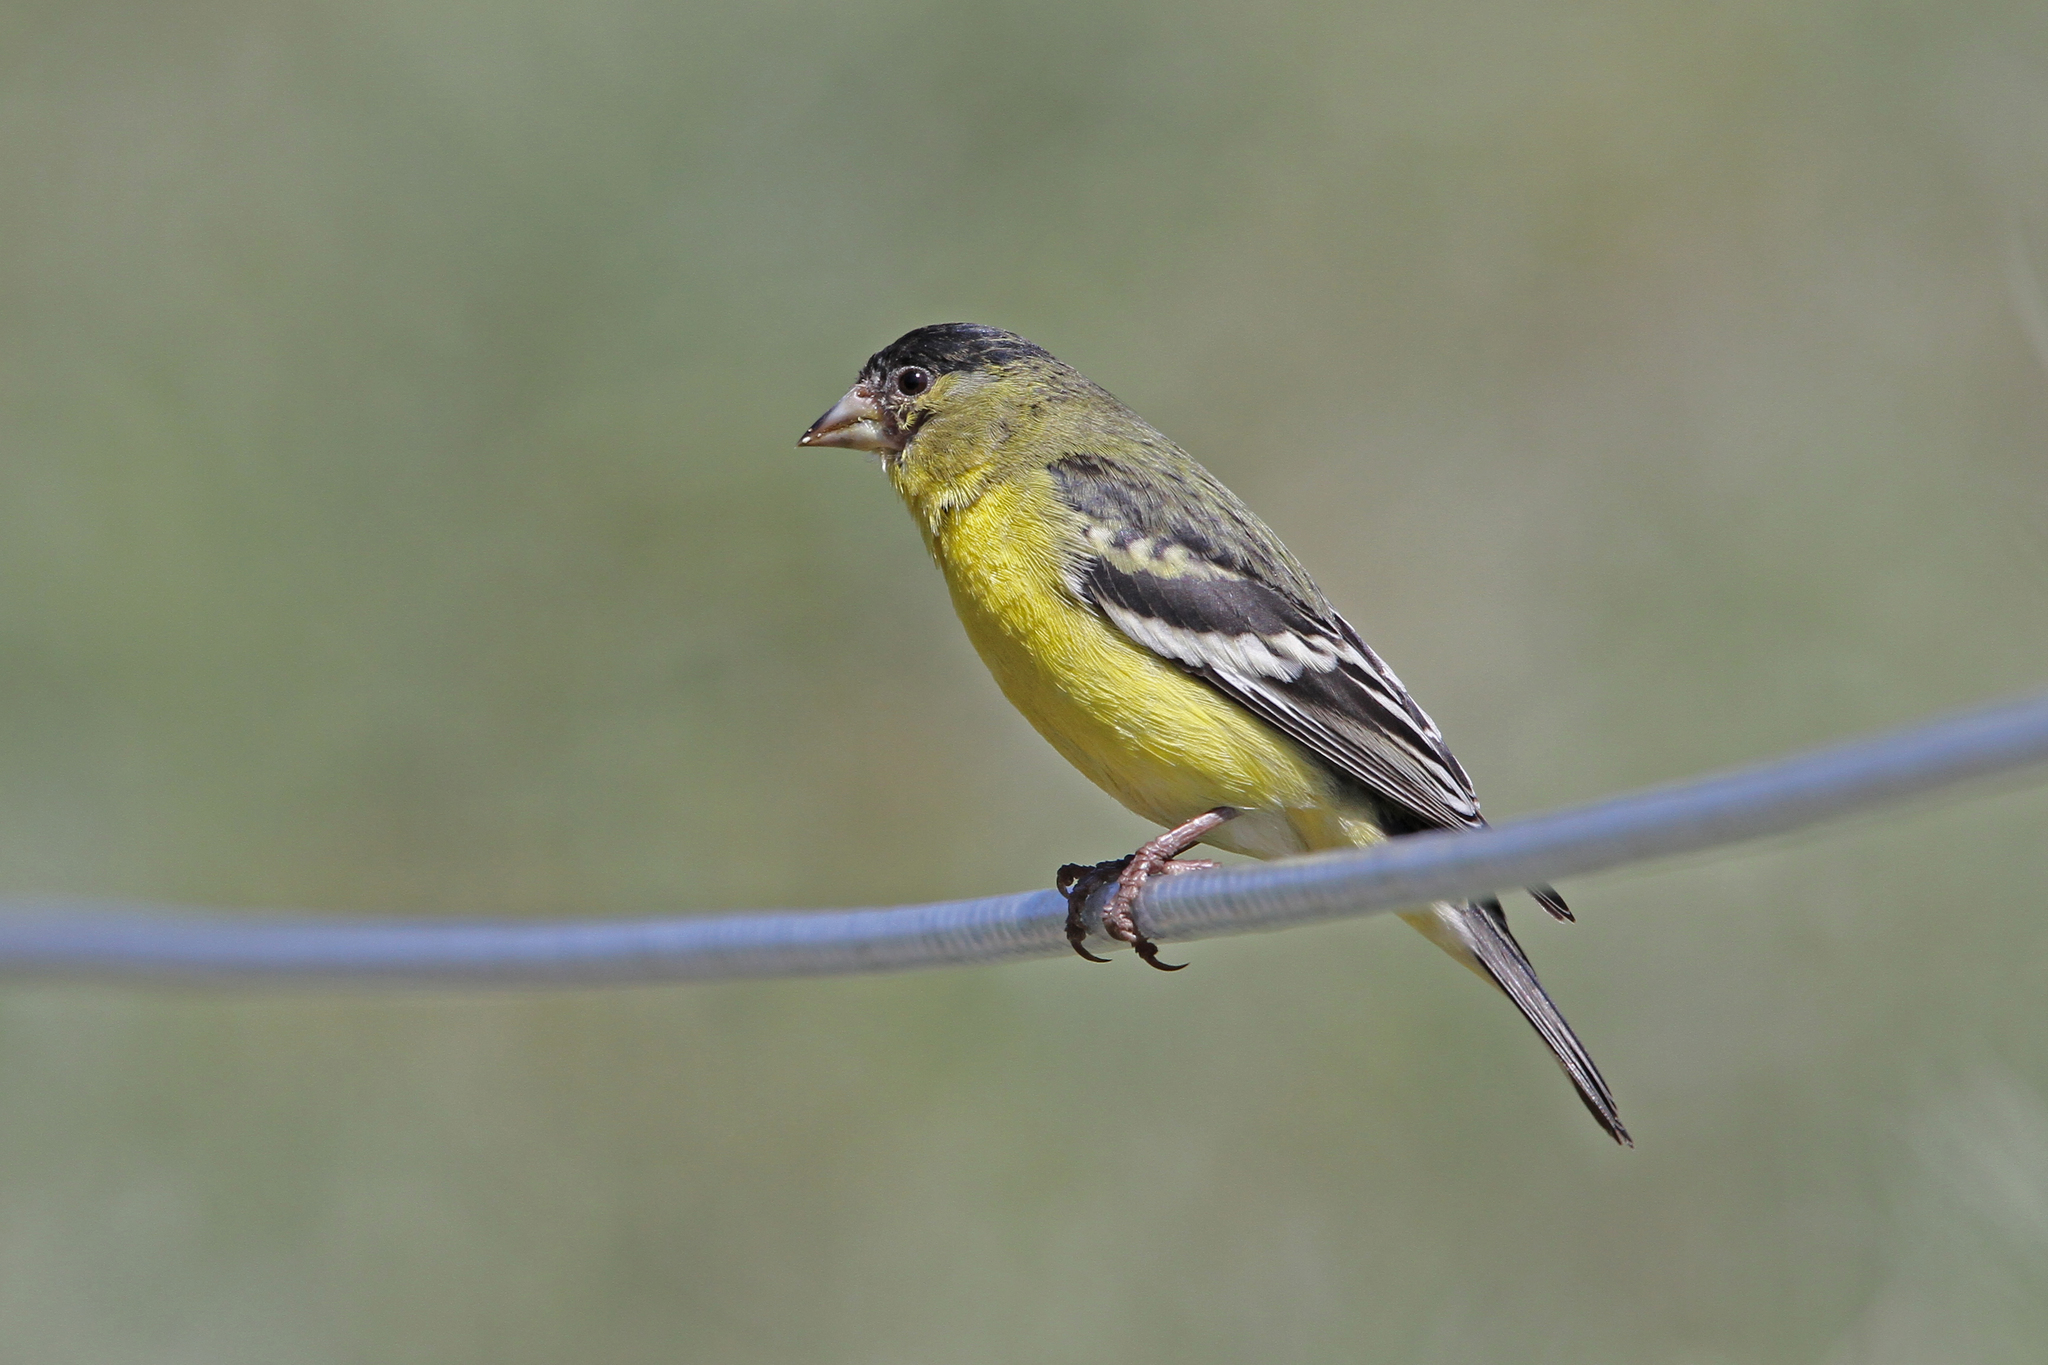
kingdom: Animalia
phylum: Chordata
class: Aves
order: Passeriformes
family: Fringillidae
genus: Spinus
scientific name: Spinus psaltria
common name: Lesser goldfinch
